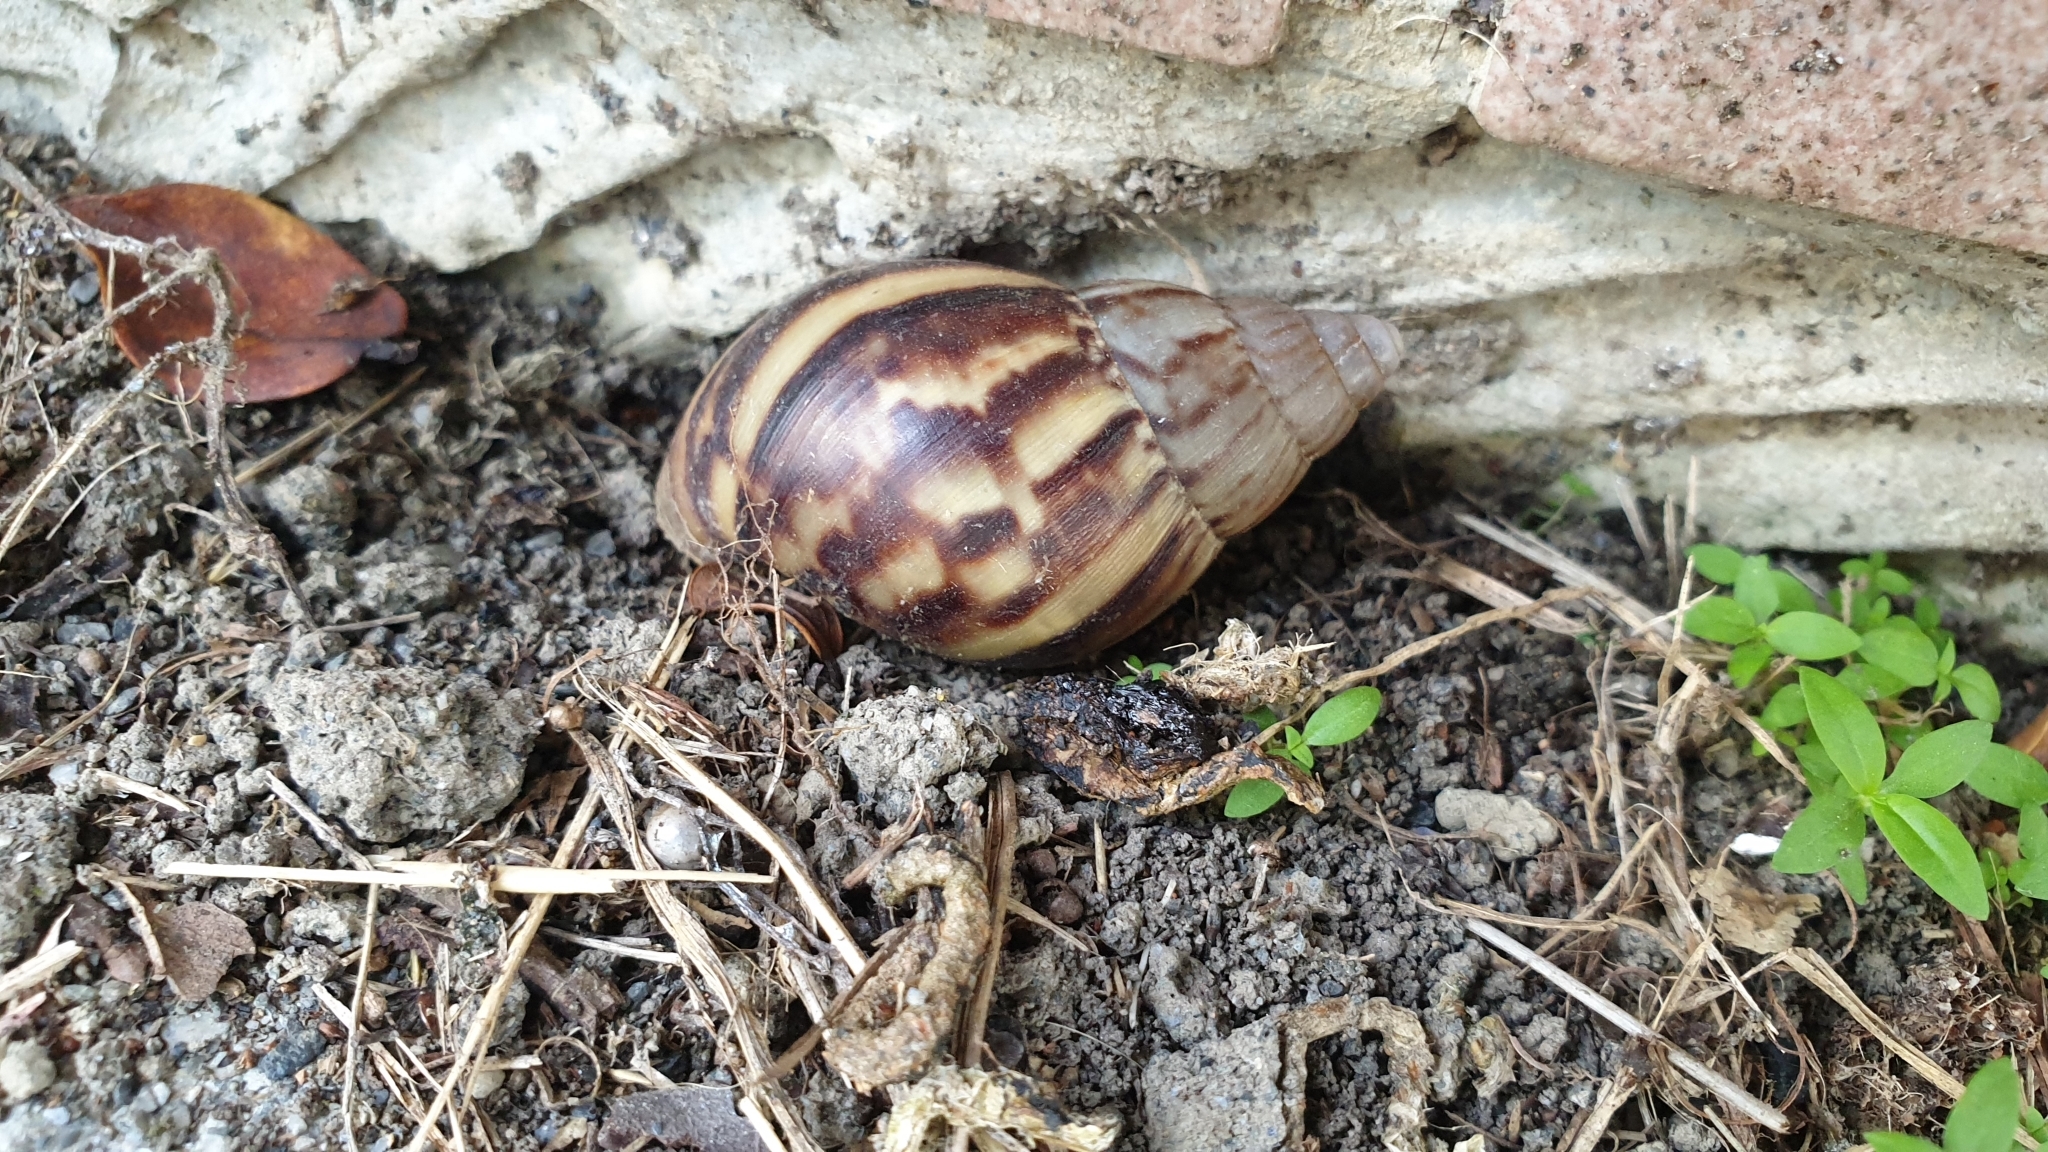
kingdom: Animalia
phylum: Mollusca
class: Gastropoda
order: Stylommatophora
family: Achatinidae
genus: Lissachatina
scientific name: Lissachatina fulica
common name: Giant african snail
